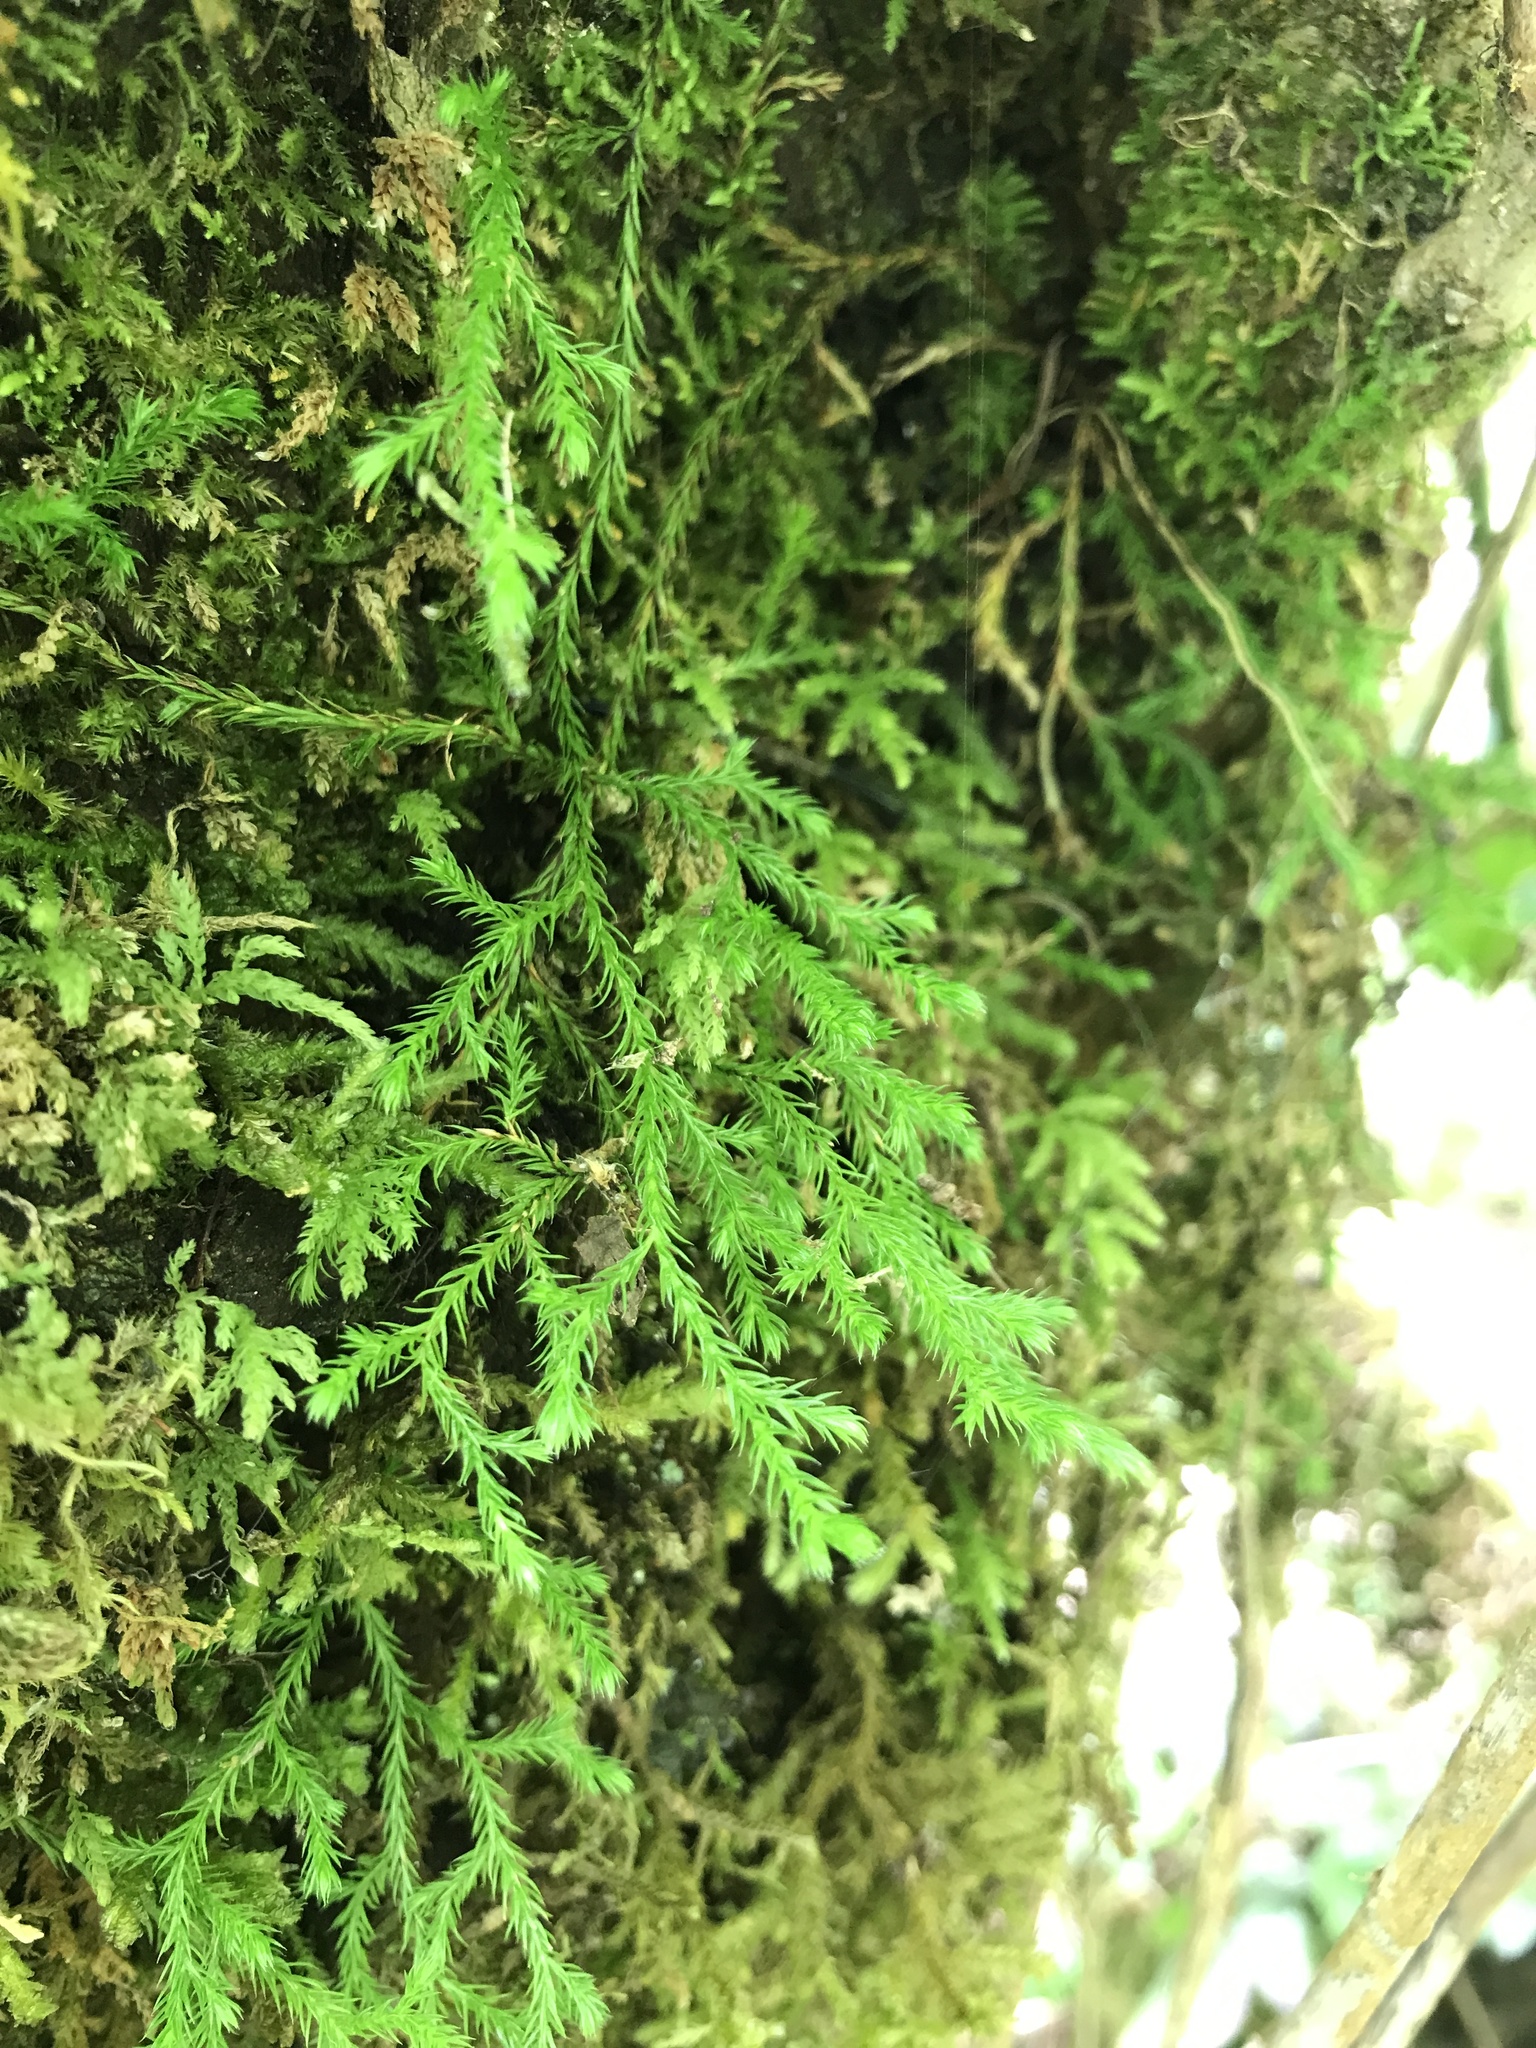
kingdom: Plantae
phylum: Tracheophyta
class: Lycopodiopsida
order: Selaginellales
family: Selaginellaceae
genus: Selaginella
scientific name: Selaginella oregana
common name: Oregon selaginella
